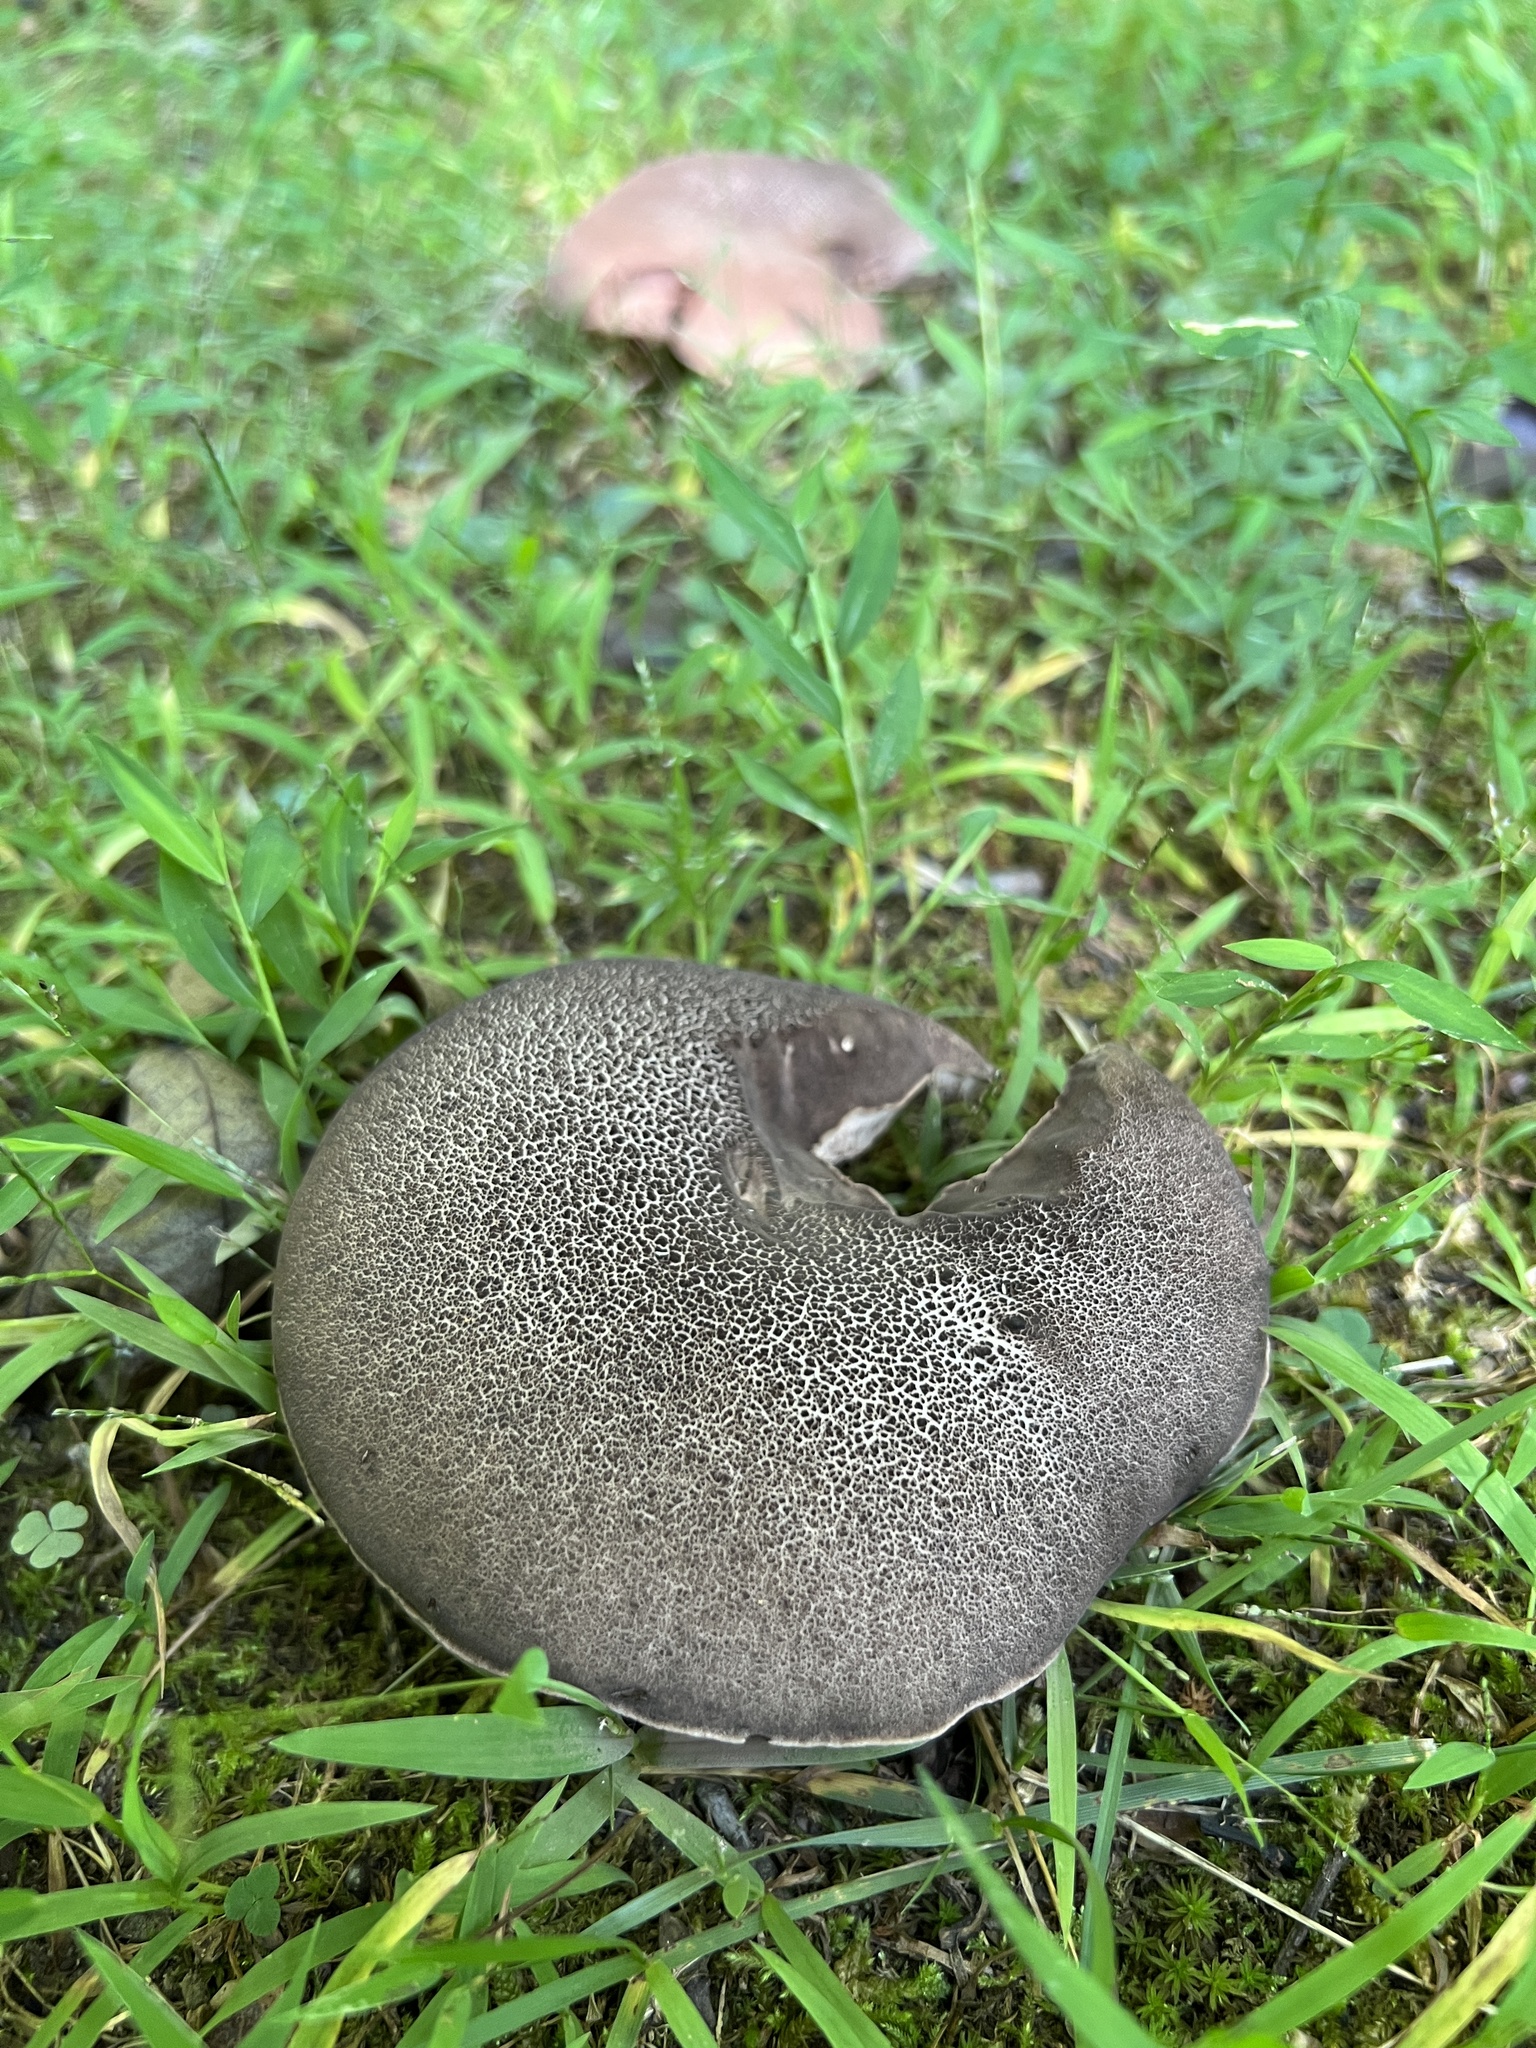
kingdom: Fungi
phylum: Basidiomycota
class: Agaricomycetes
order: Boletales
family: Boletaceae
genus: Tylopilus
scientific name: Tylopilus alboater
